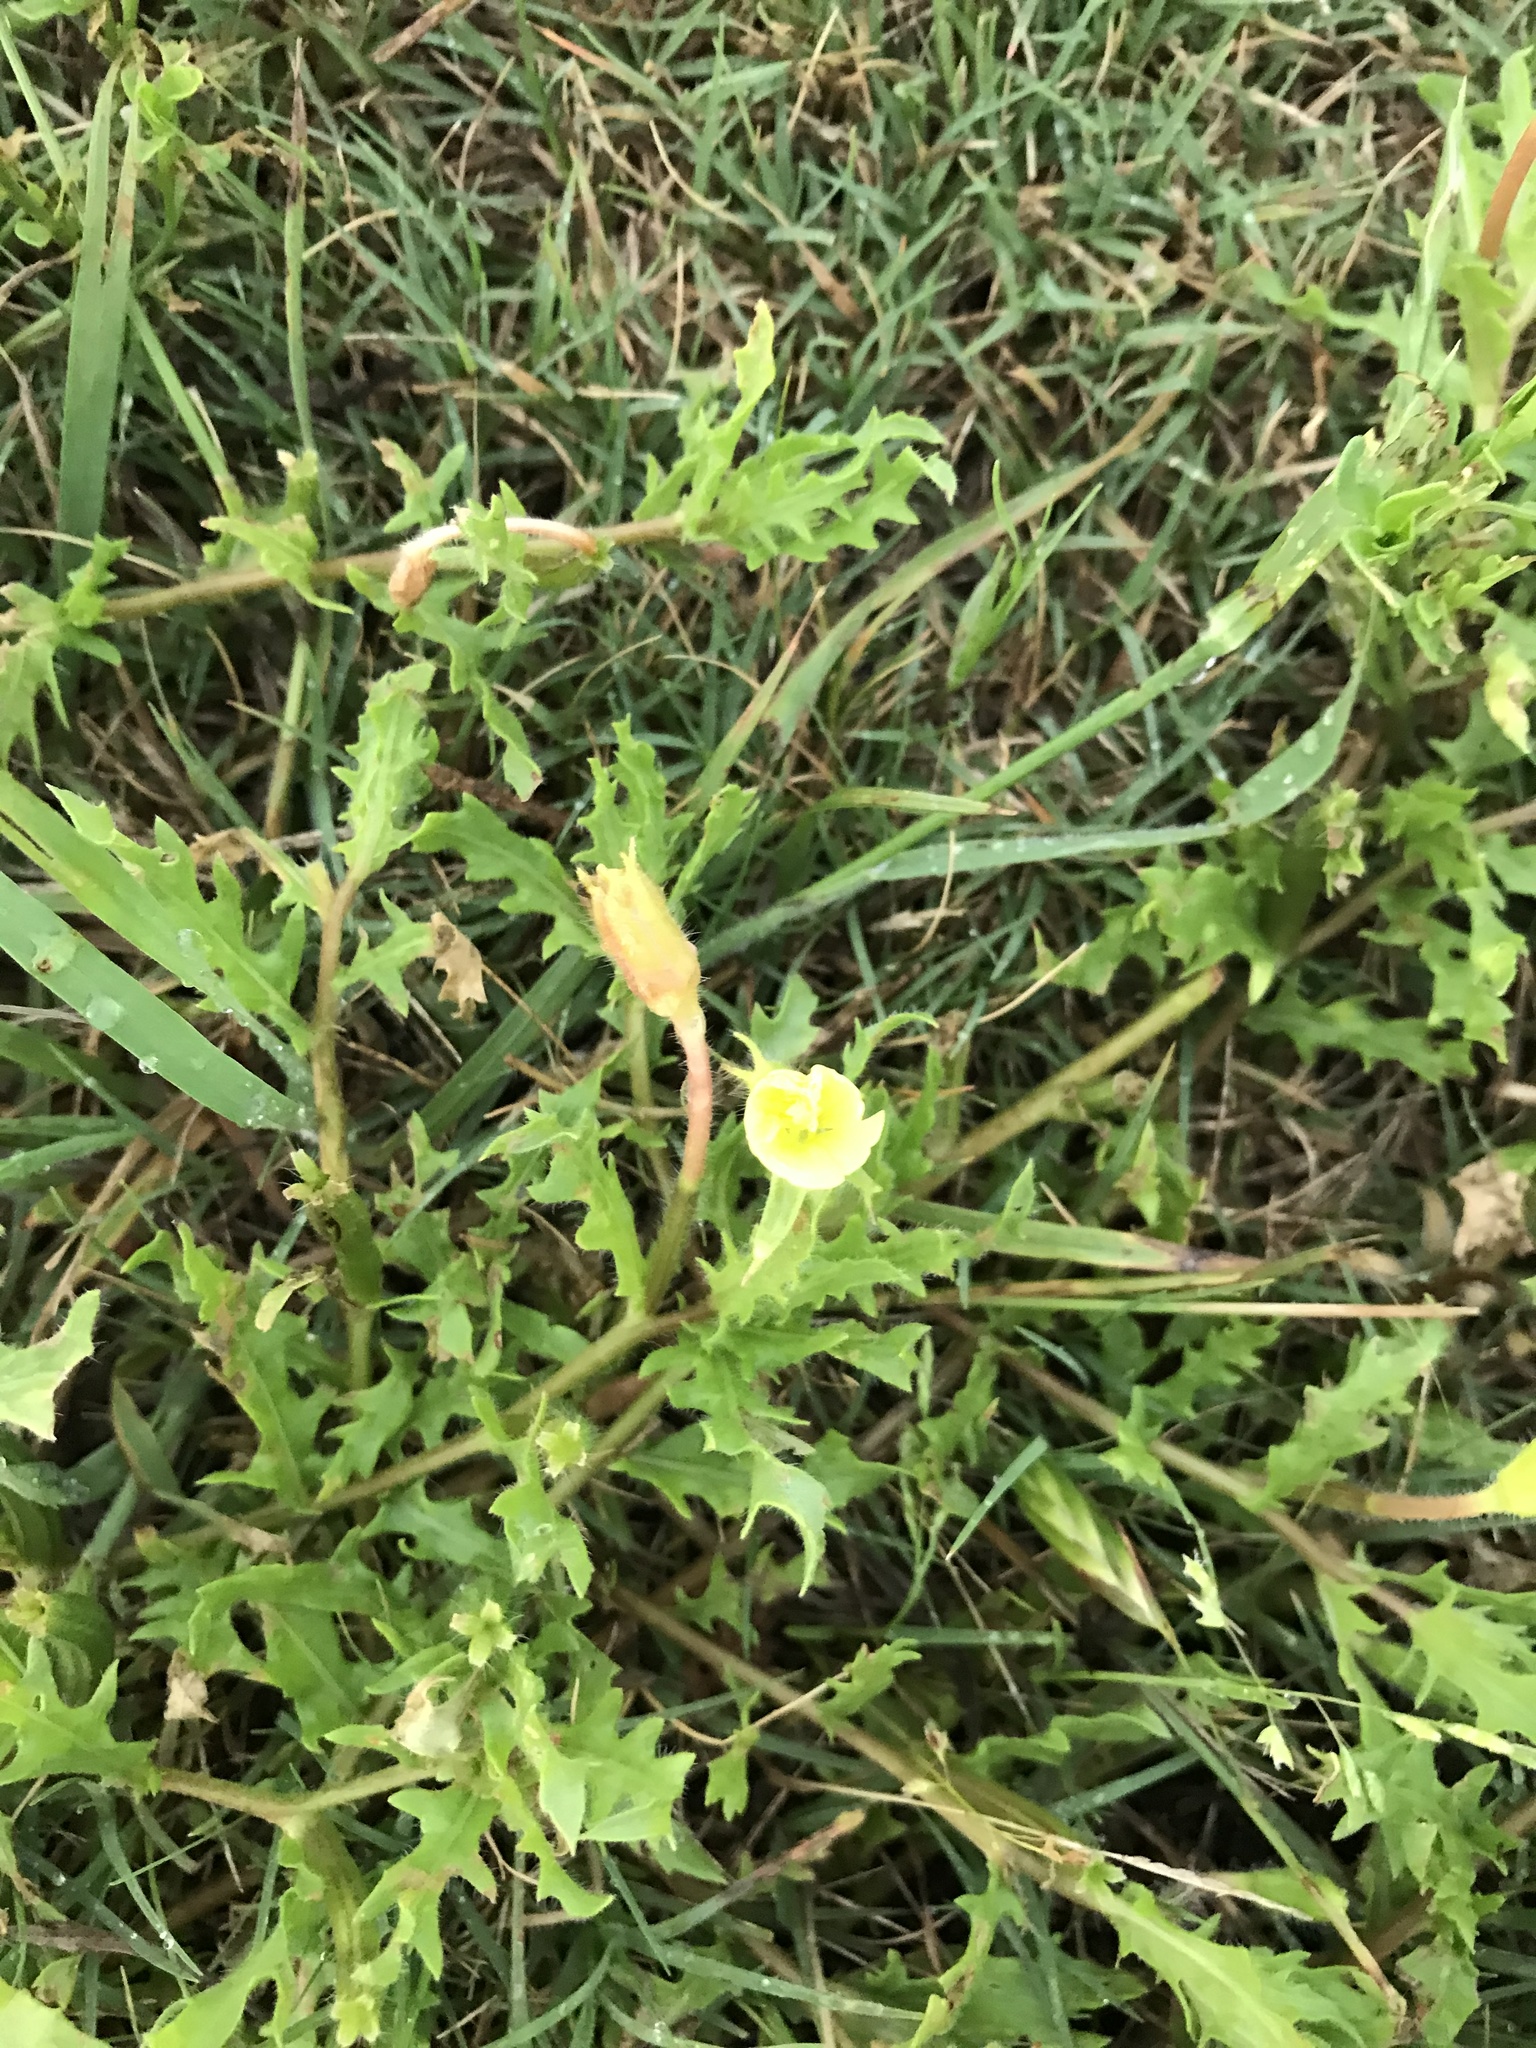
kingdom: Plantae
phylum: Tracheophyta
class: Magnoliopsida
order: Myrtales
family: Onagraceae
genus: Oenothera
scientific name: Oenothera laciniata
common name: Cut-leaved evening-primrose
